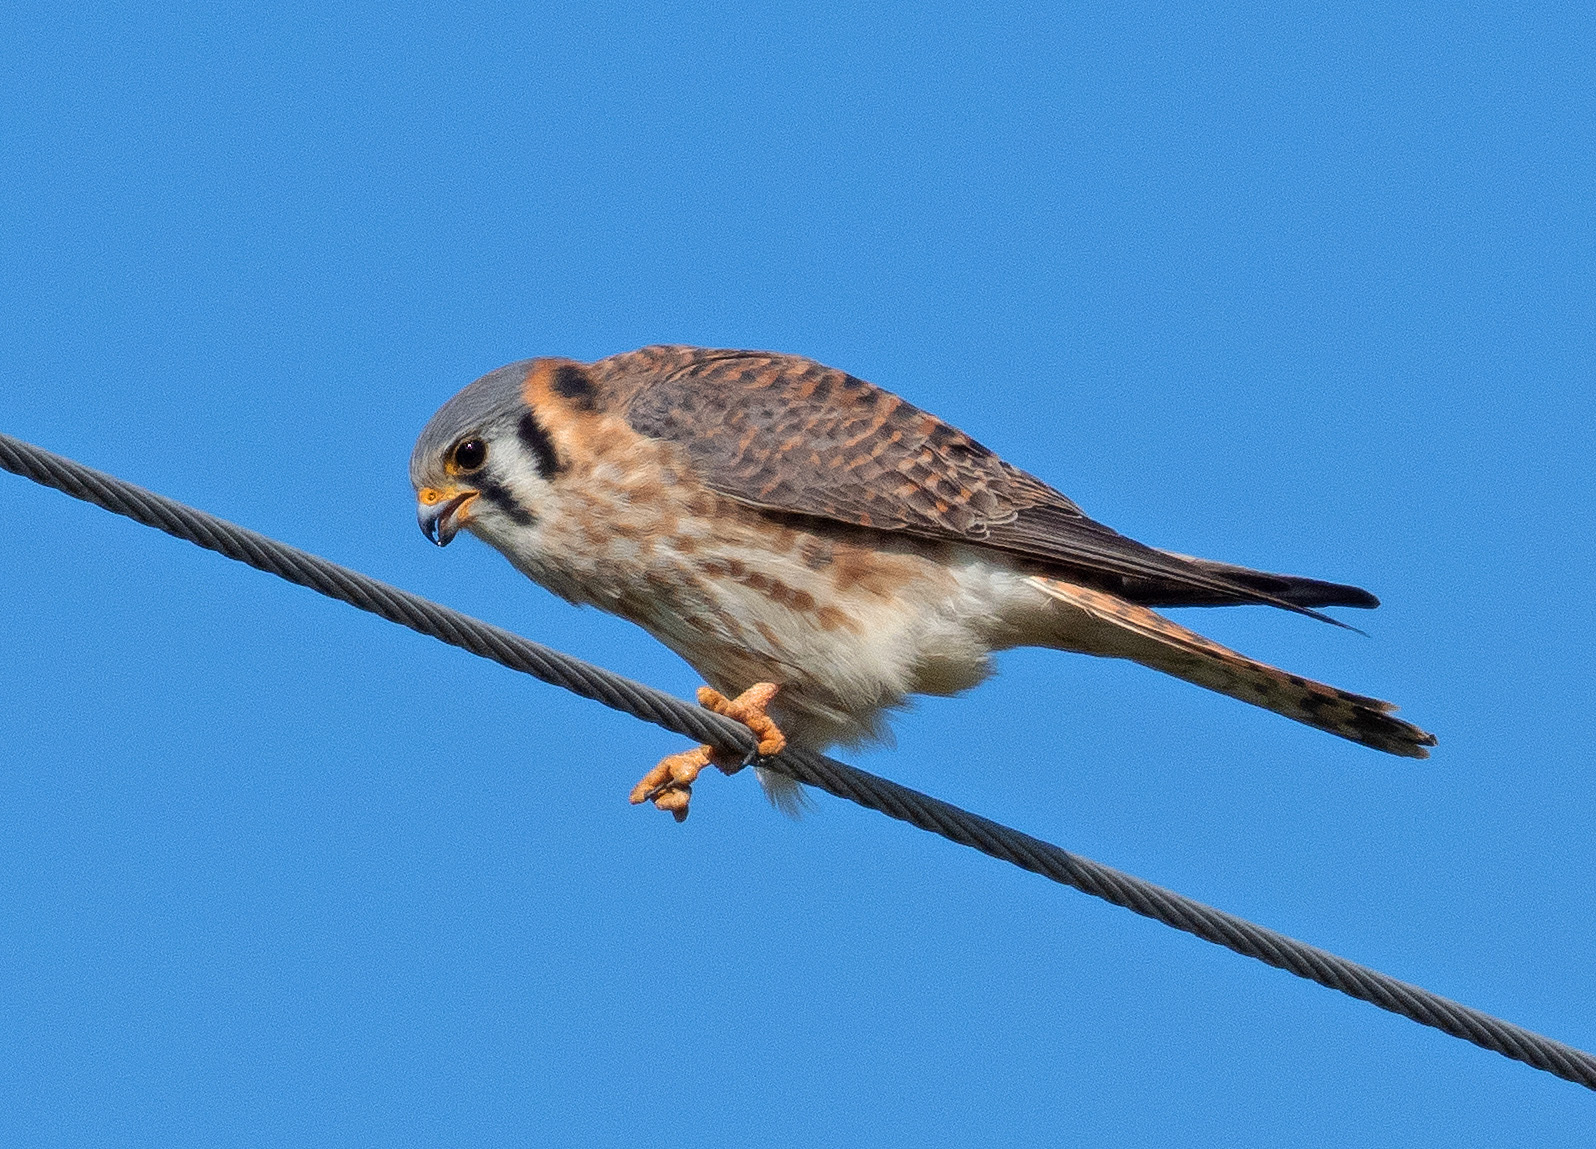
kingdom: Animalia
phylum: Chordata
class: Aves
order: Falconiformes
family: Falconidae
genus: Falco
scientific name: Falco sparverius
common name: American kestrel
